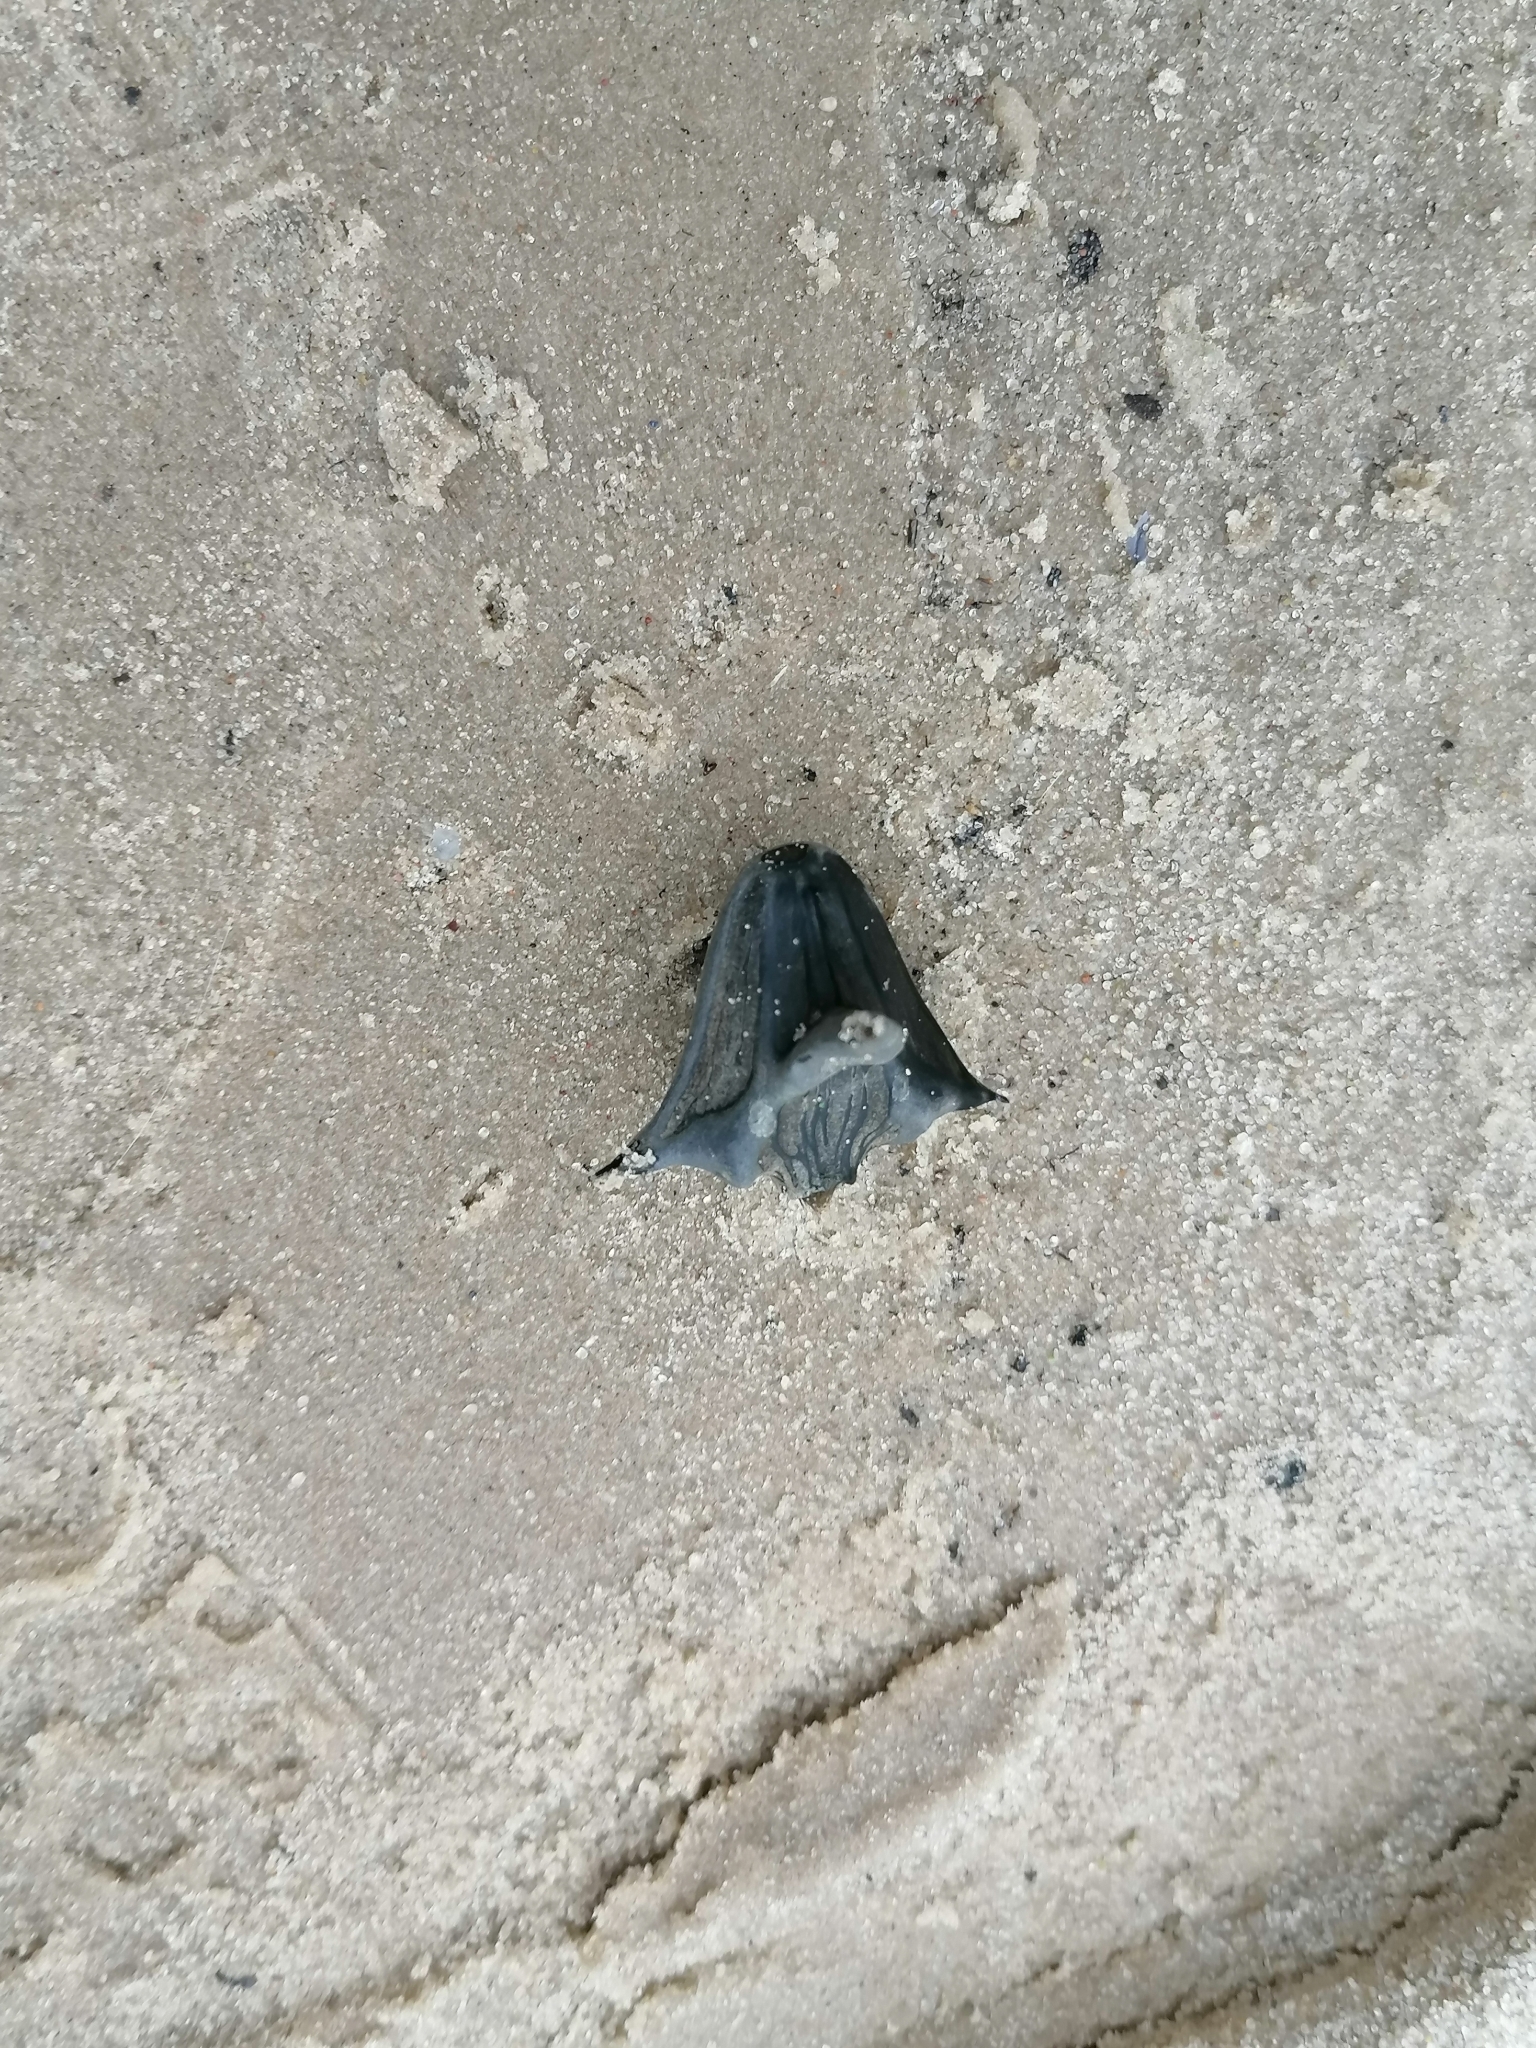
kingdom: Plantae
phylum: Tracheophyta
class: Magnoliopsida
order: Myrtales
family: Lythraceae
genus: Trapa
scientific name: Trapa natans
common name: Water chestnut
